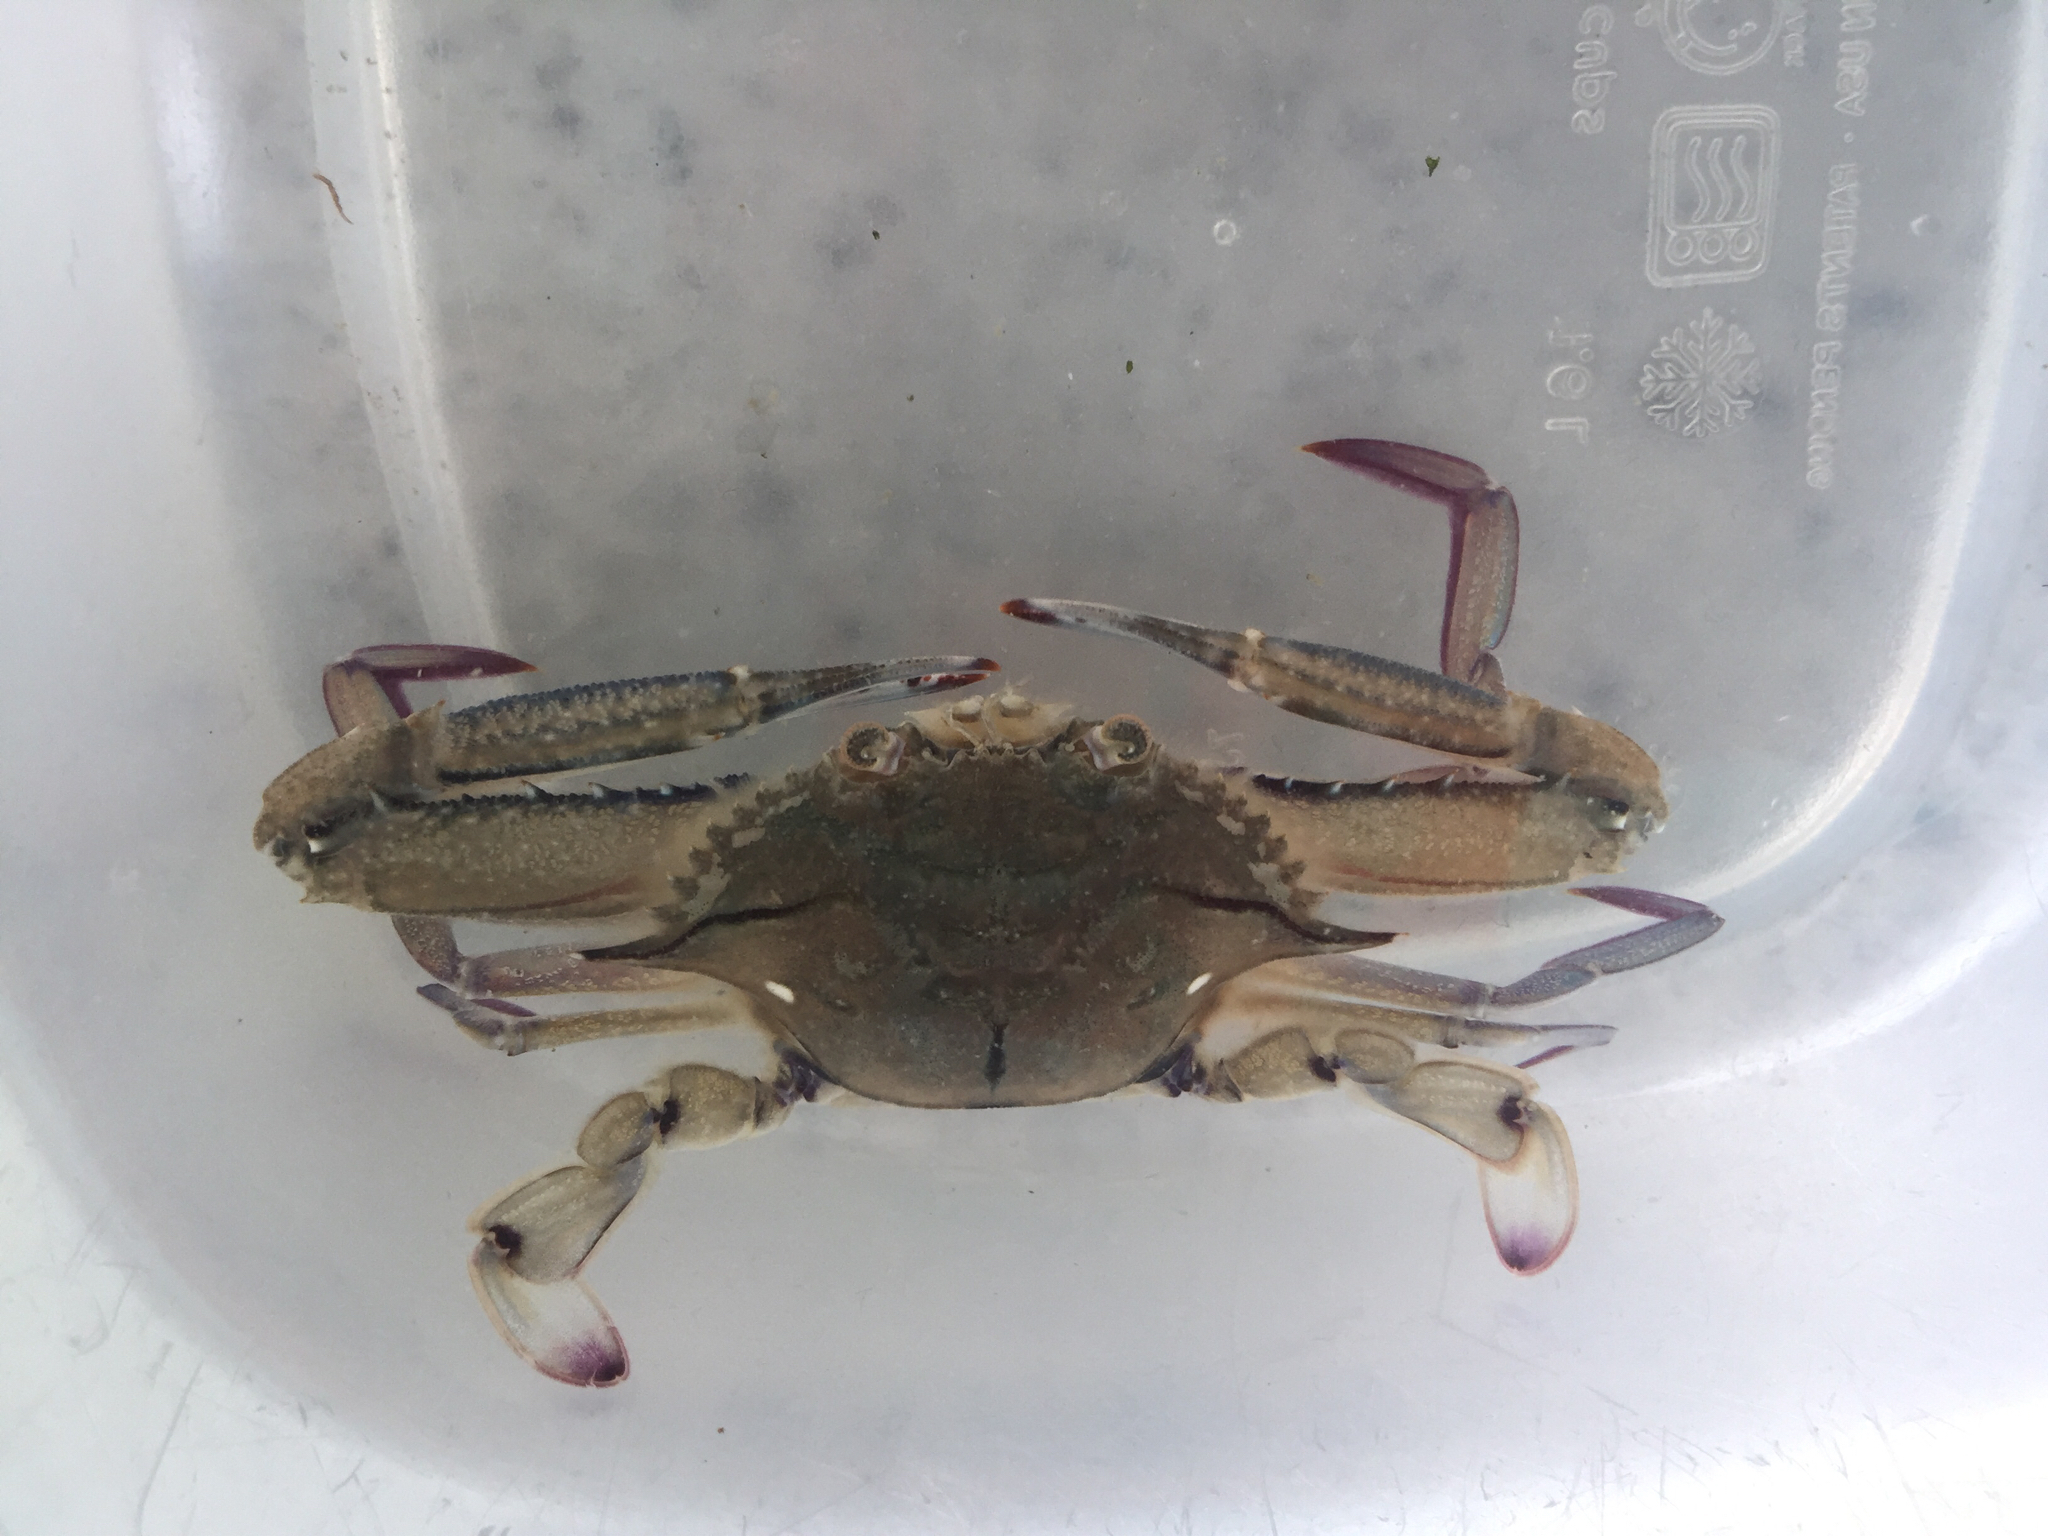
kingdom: Animalia
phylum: Arthropoda
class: Malacostraca
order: Decapoda
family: Portunidae
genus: Achelous
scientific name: Achelous gibbesii
